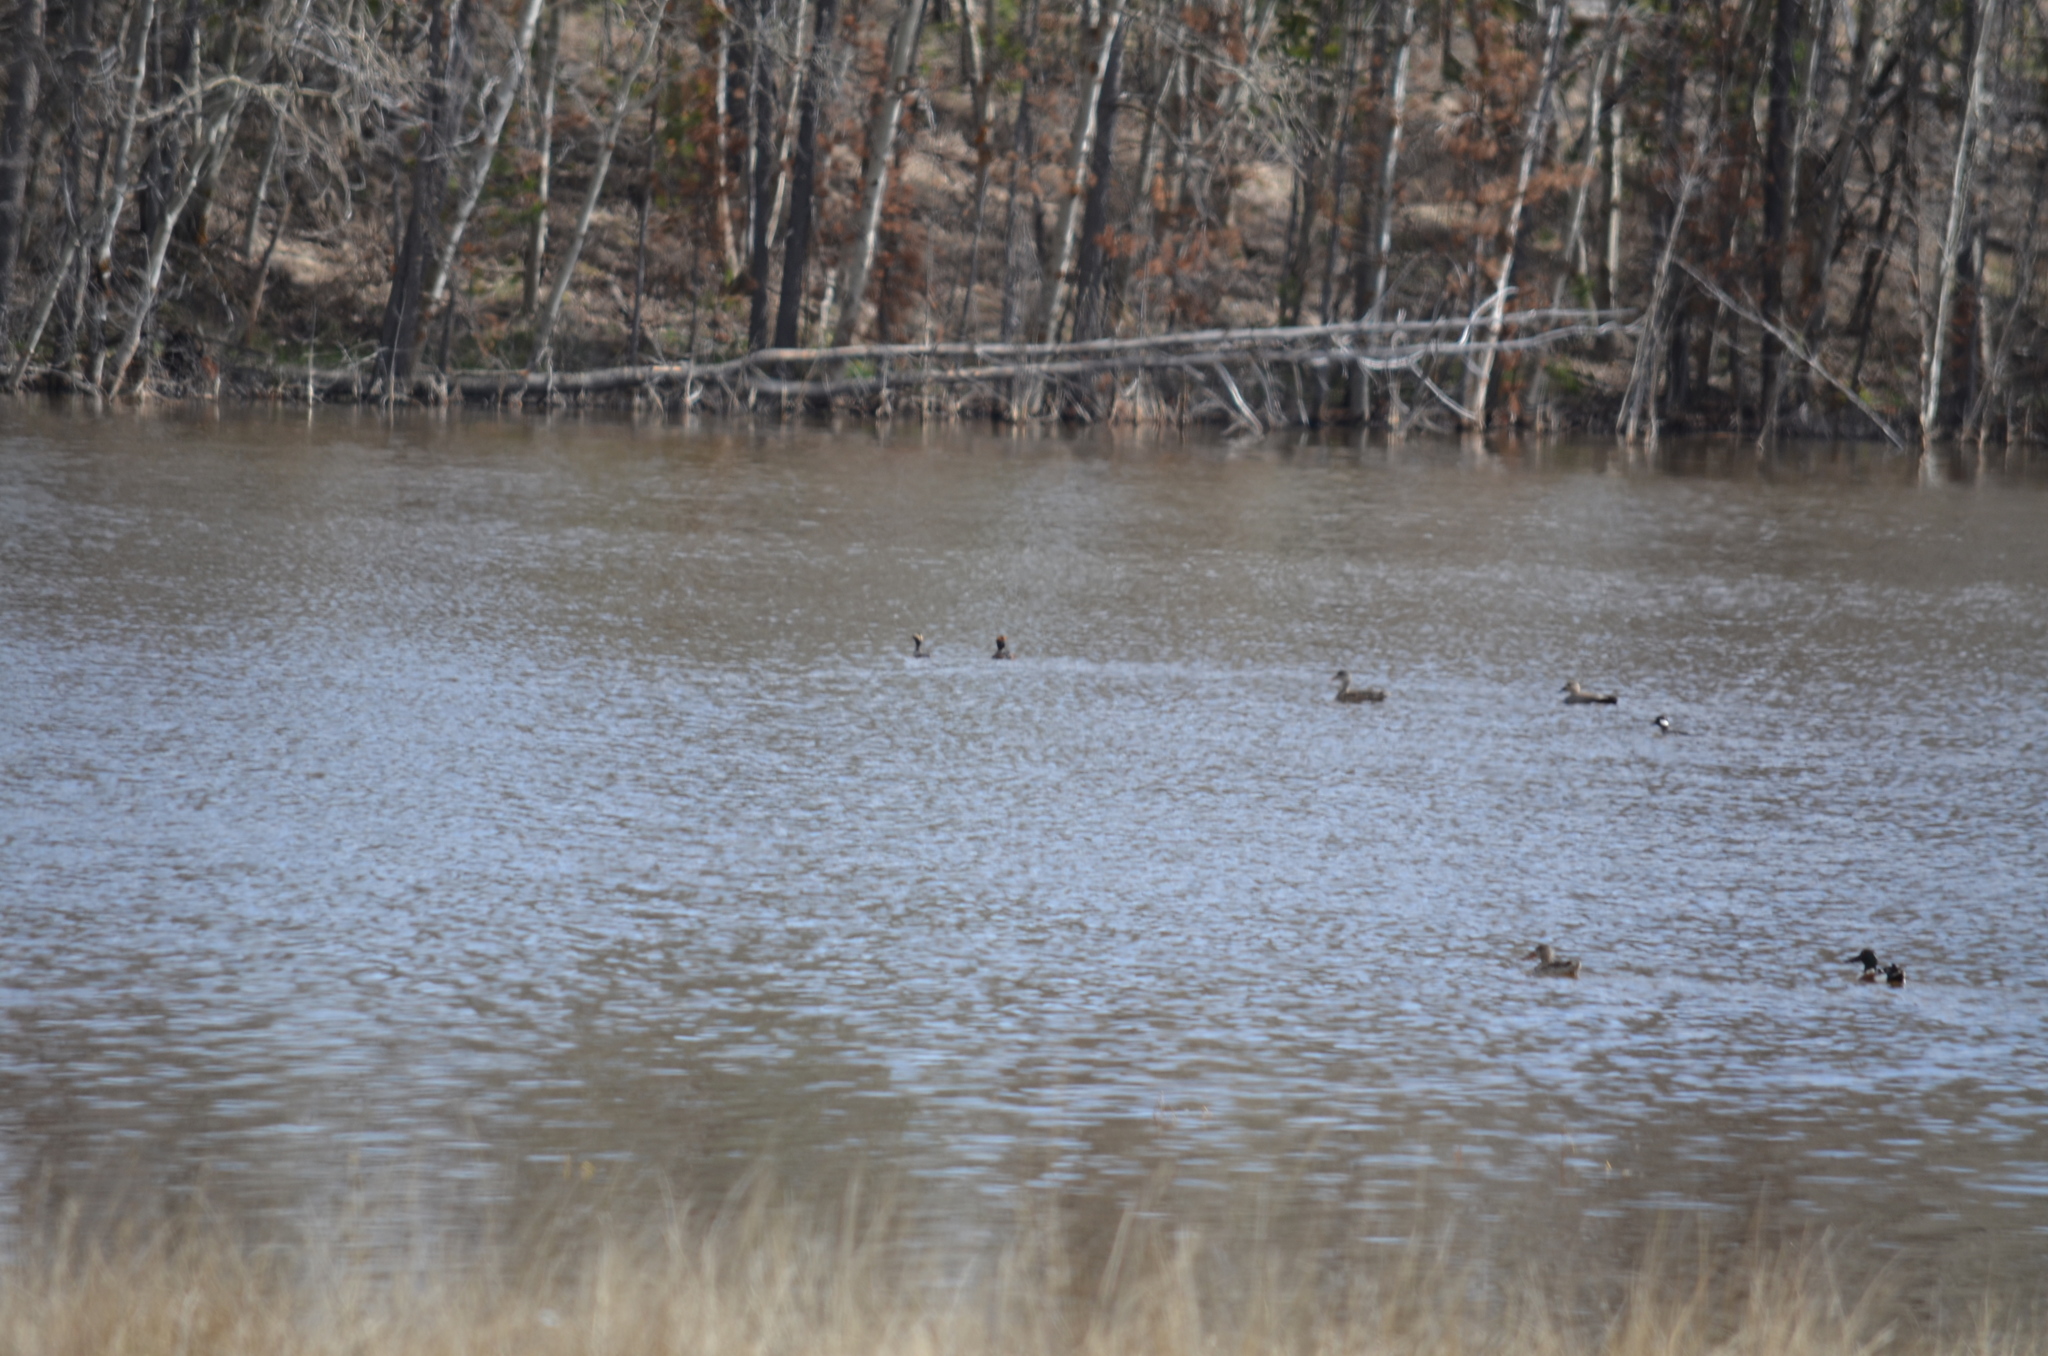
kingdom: Animalia
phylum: Chordata
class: Aves
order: Anseriformes
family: Anatidae
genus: Bucephala
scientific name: Bucephala albeola
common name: Bufflehead
